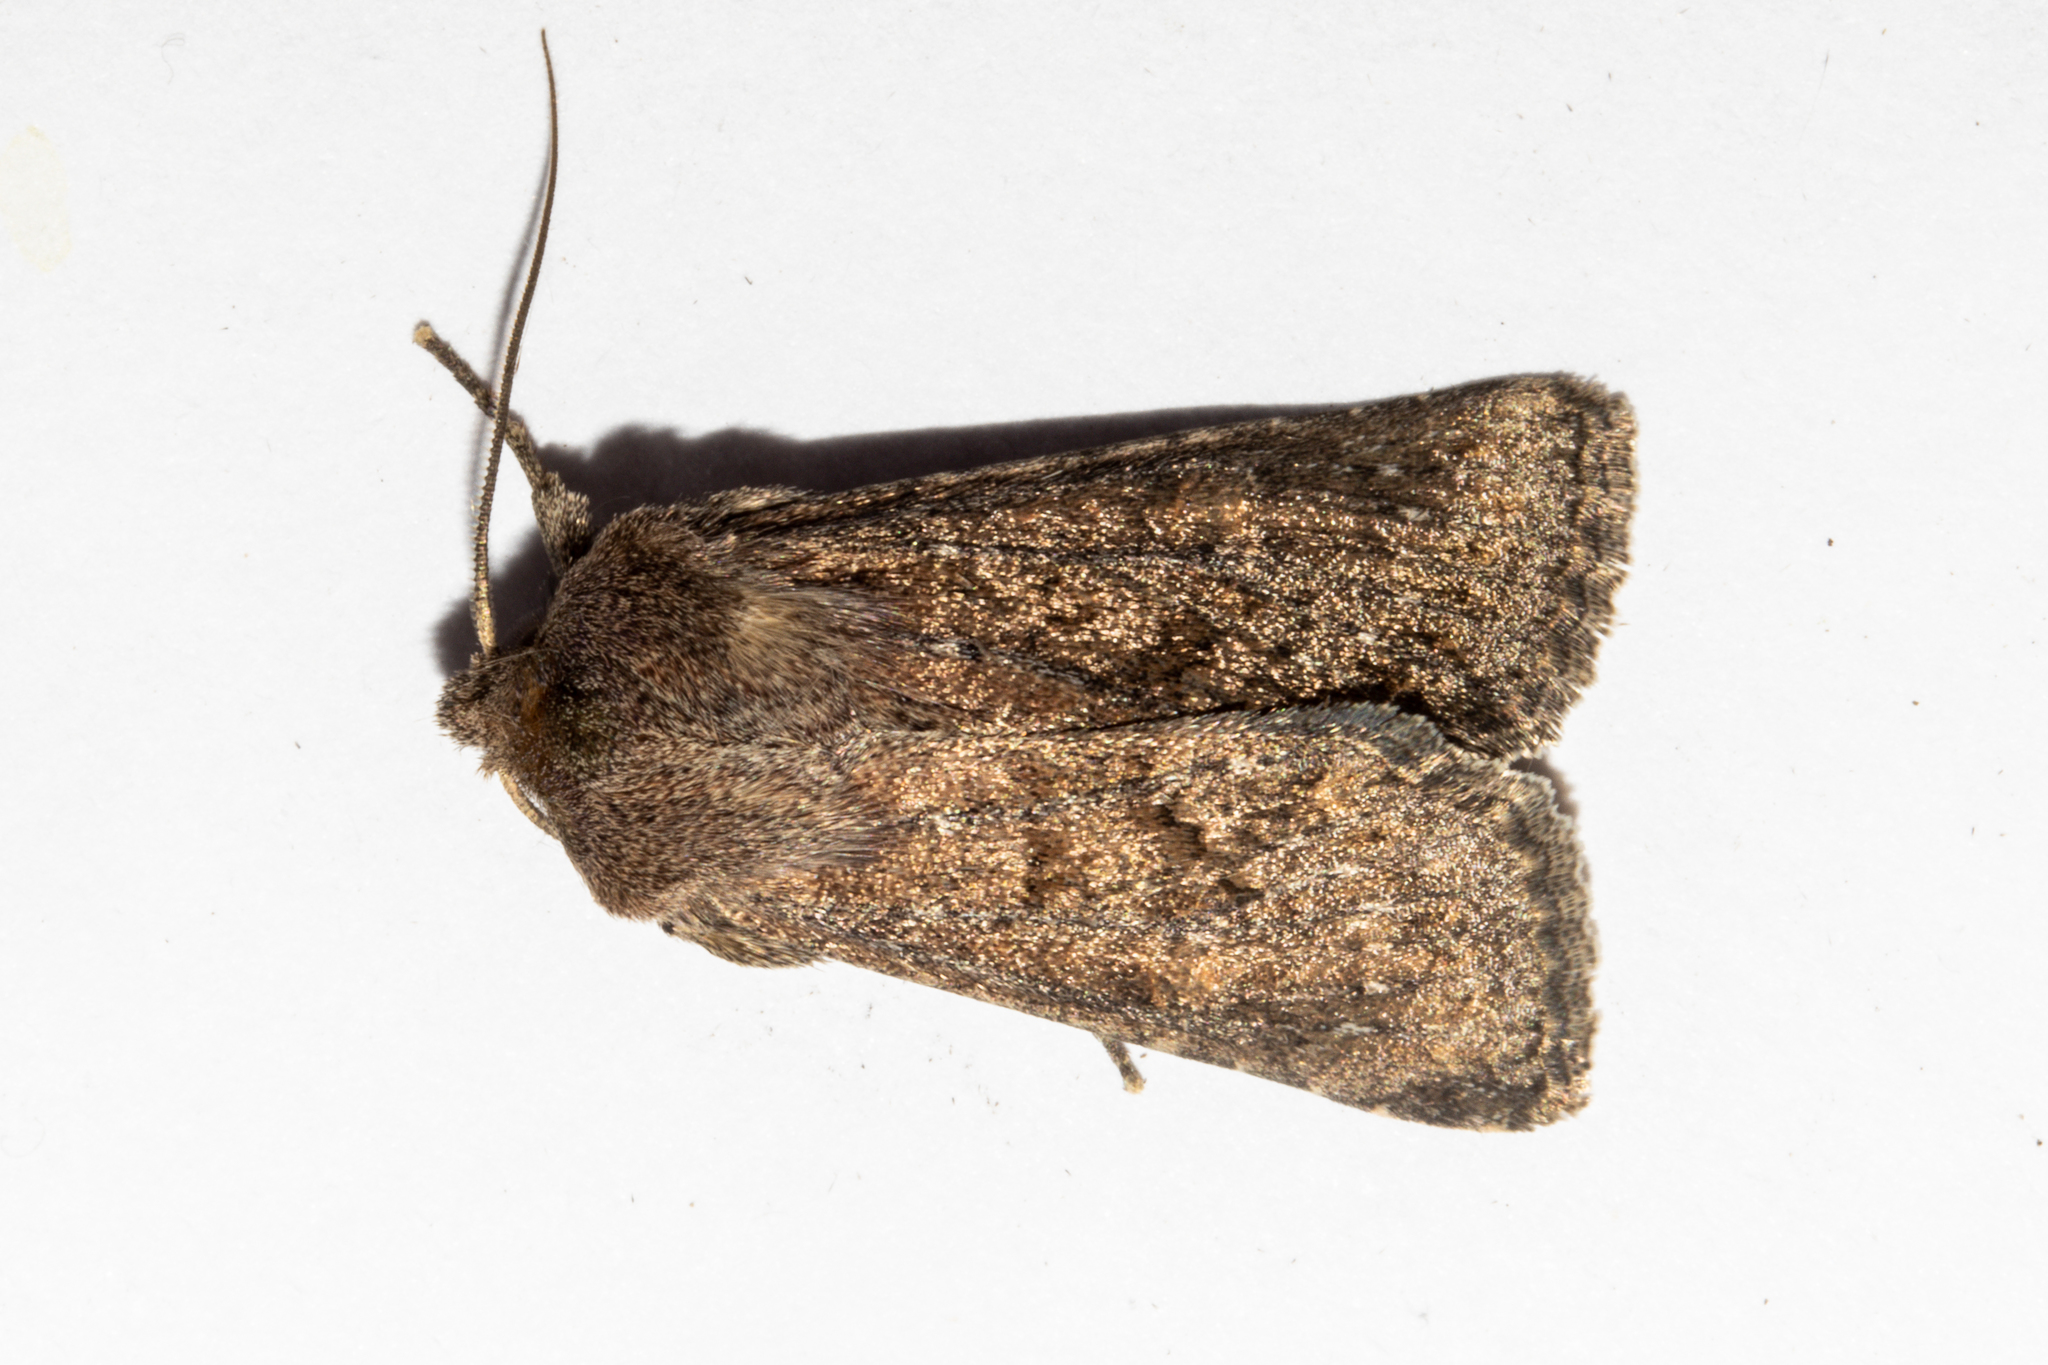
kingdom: Animalia
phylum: Arthropoda
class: Insecta
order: Lepidoptera
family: Noctuidae
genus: Physetica
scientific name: Physetica
